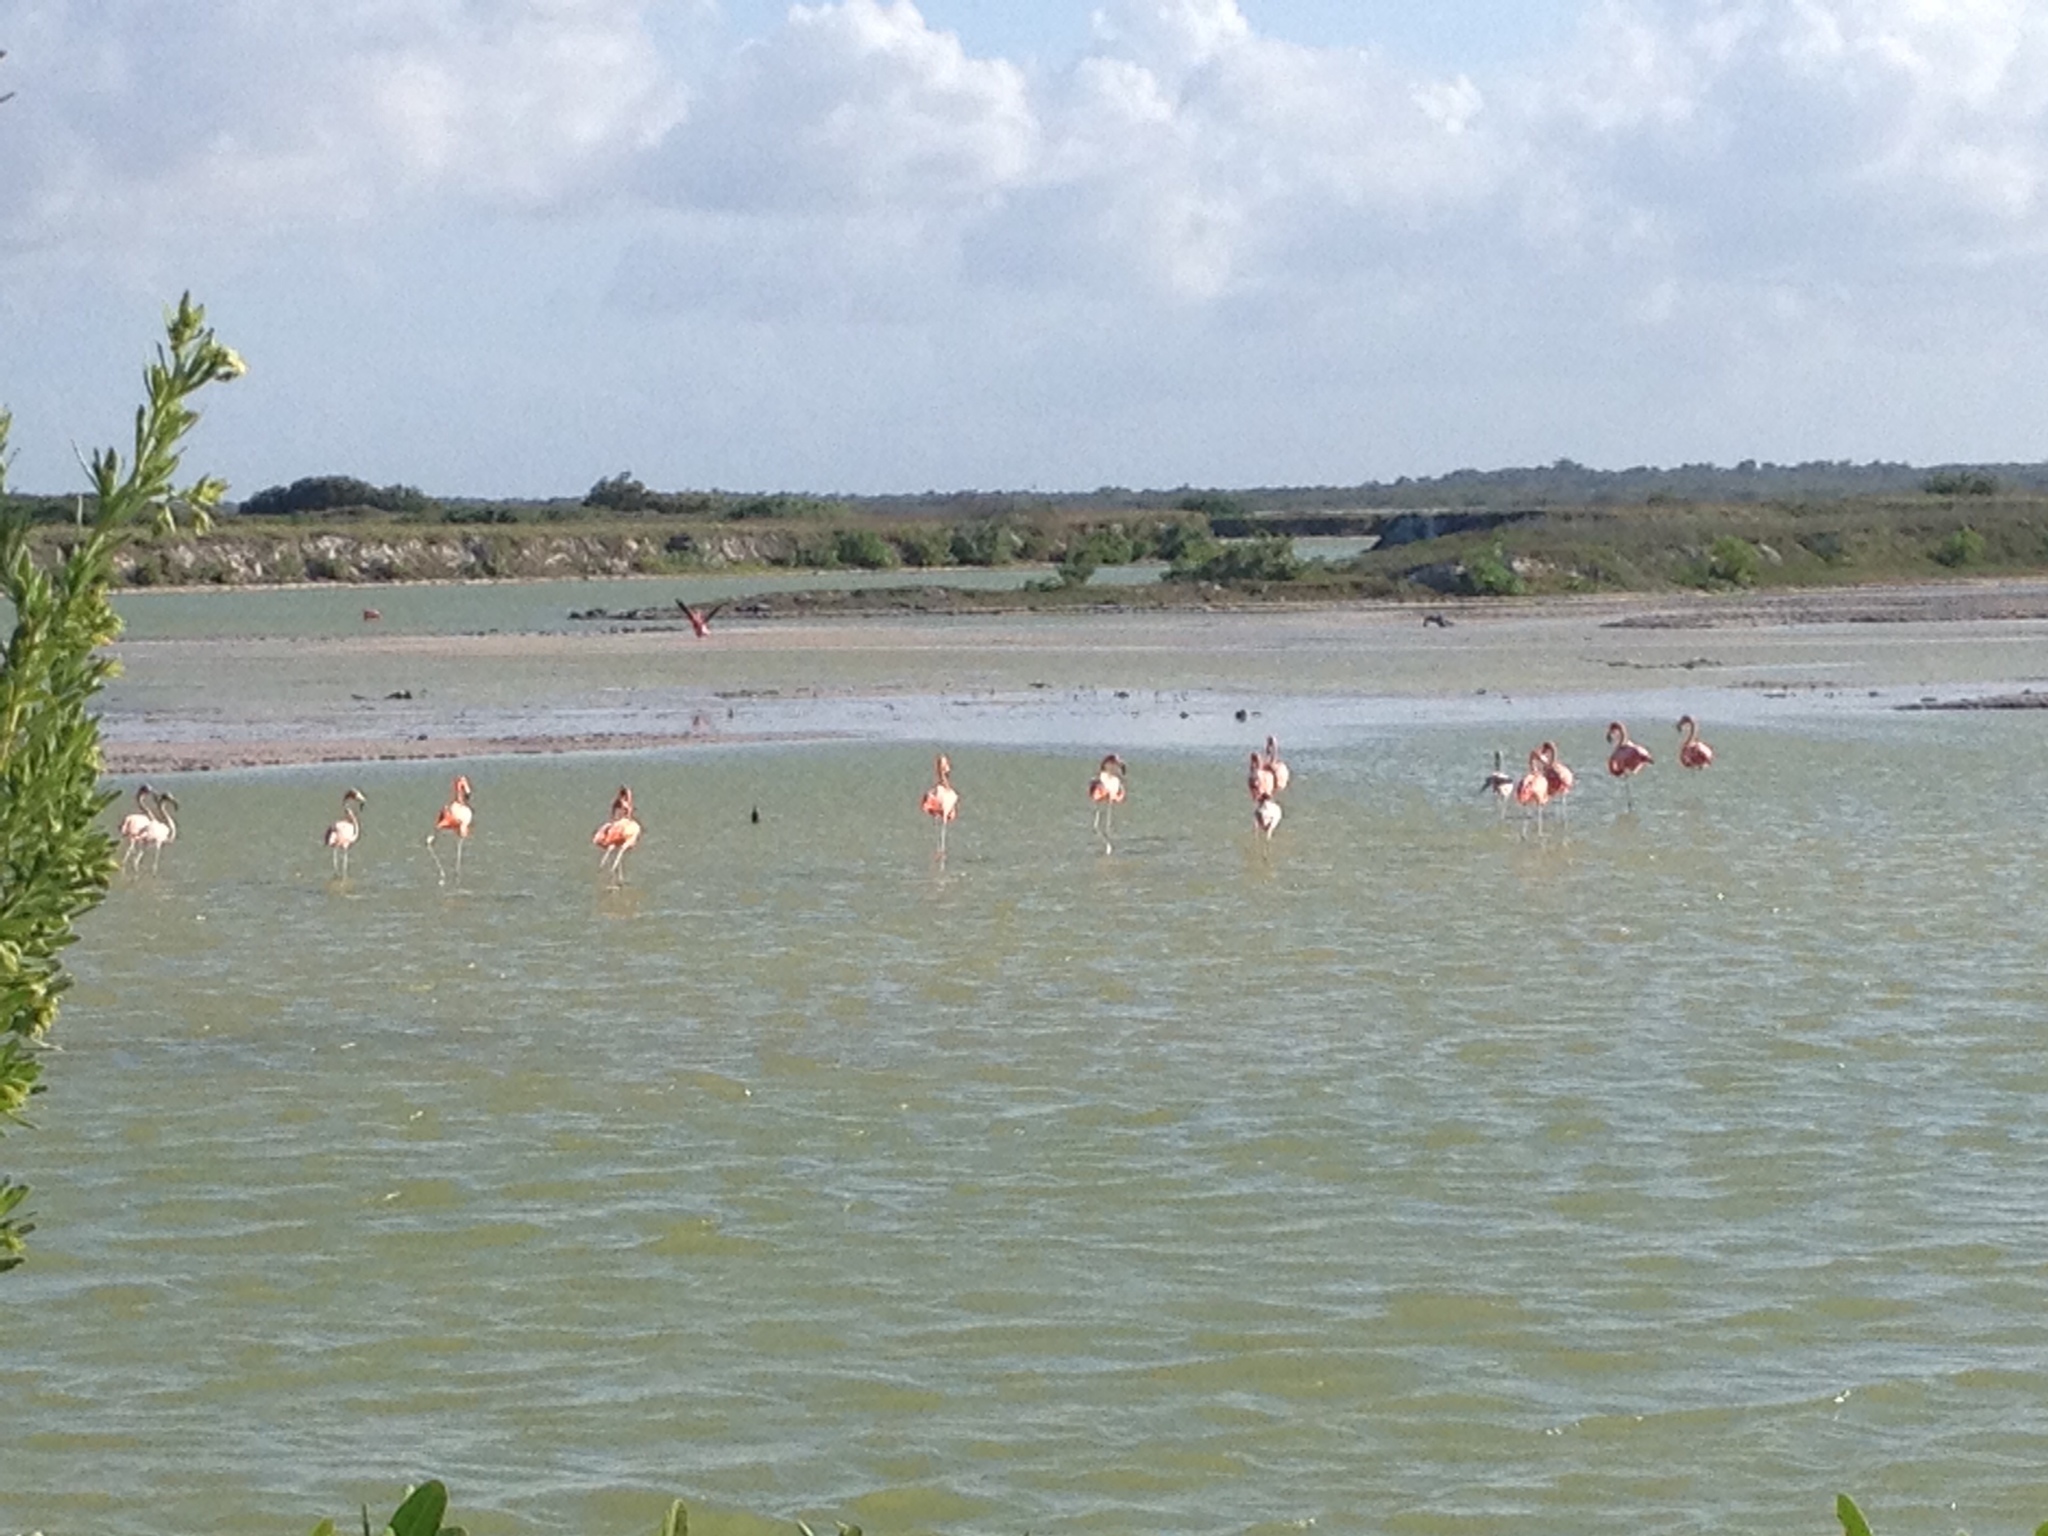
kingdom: Animalia
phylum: Chordata
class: Aves
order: Phoenicopteriformes
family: Phoenicopteridae
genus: Phoenicopterus
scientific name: Phoenicopterus ruber
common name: American flamingo
